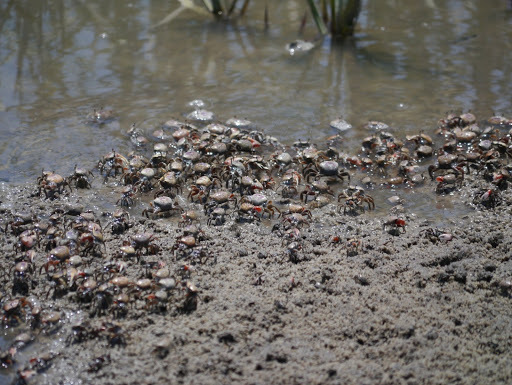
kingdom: Animalia
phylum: Arthropoda
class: Malacostraca
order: Decapoda
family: Ocypodidae
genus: Leptuca
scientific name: Leptuca pugilator
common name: Atlantic sand fiddler crab
